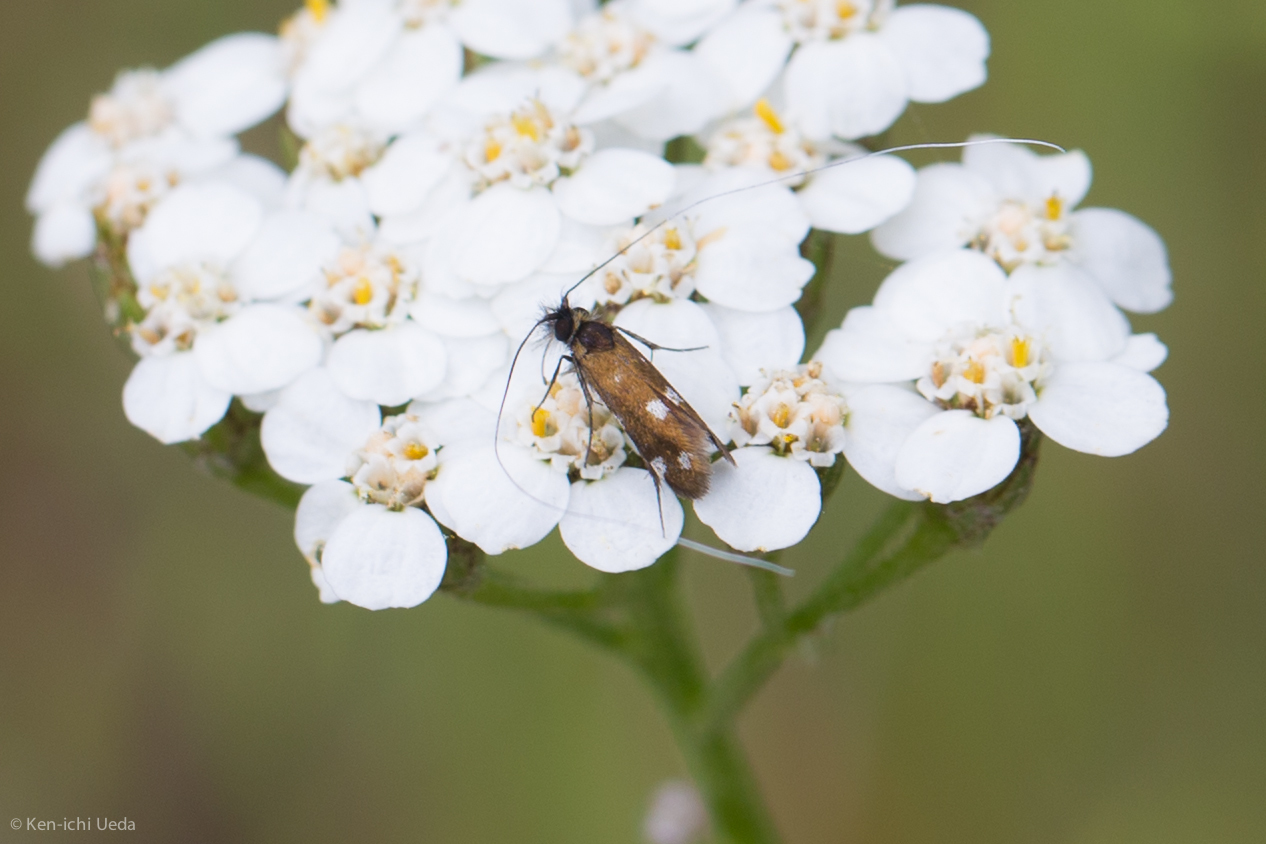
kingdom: Animalia
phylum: Arthropoda
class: Insecta
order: Lepidoptera
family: Adelidae
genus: Adela
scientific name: Adela flammeusella
